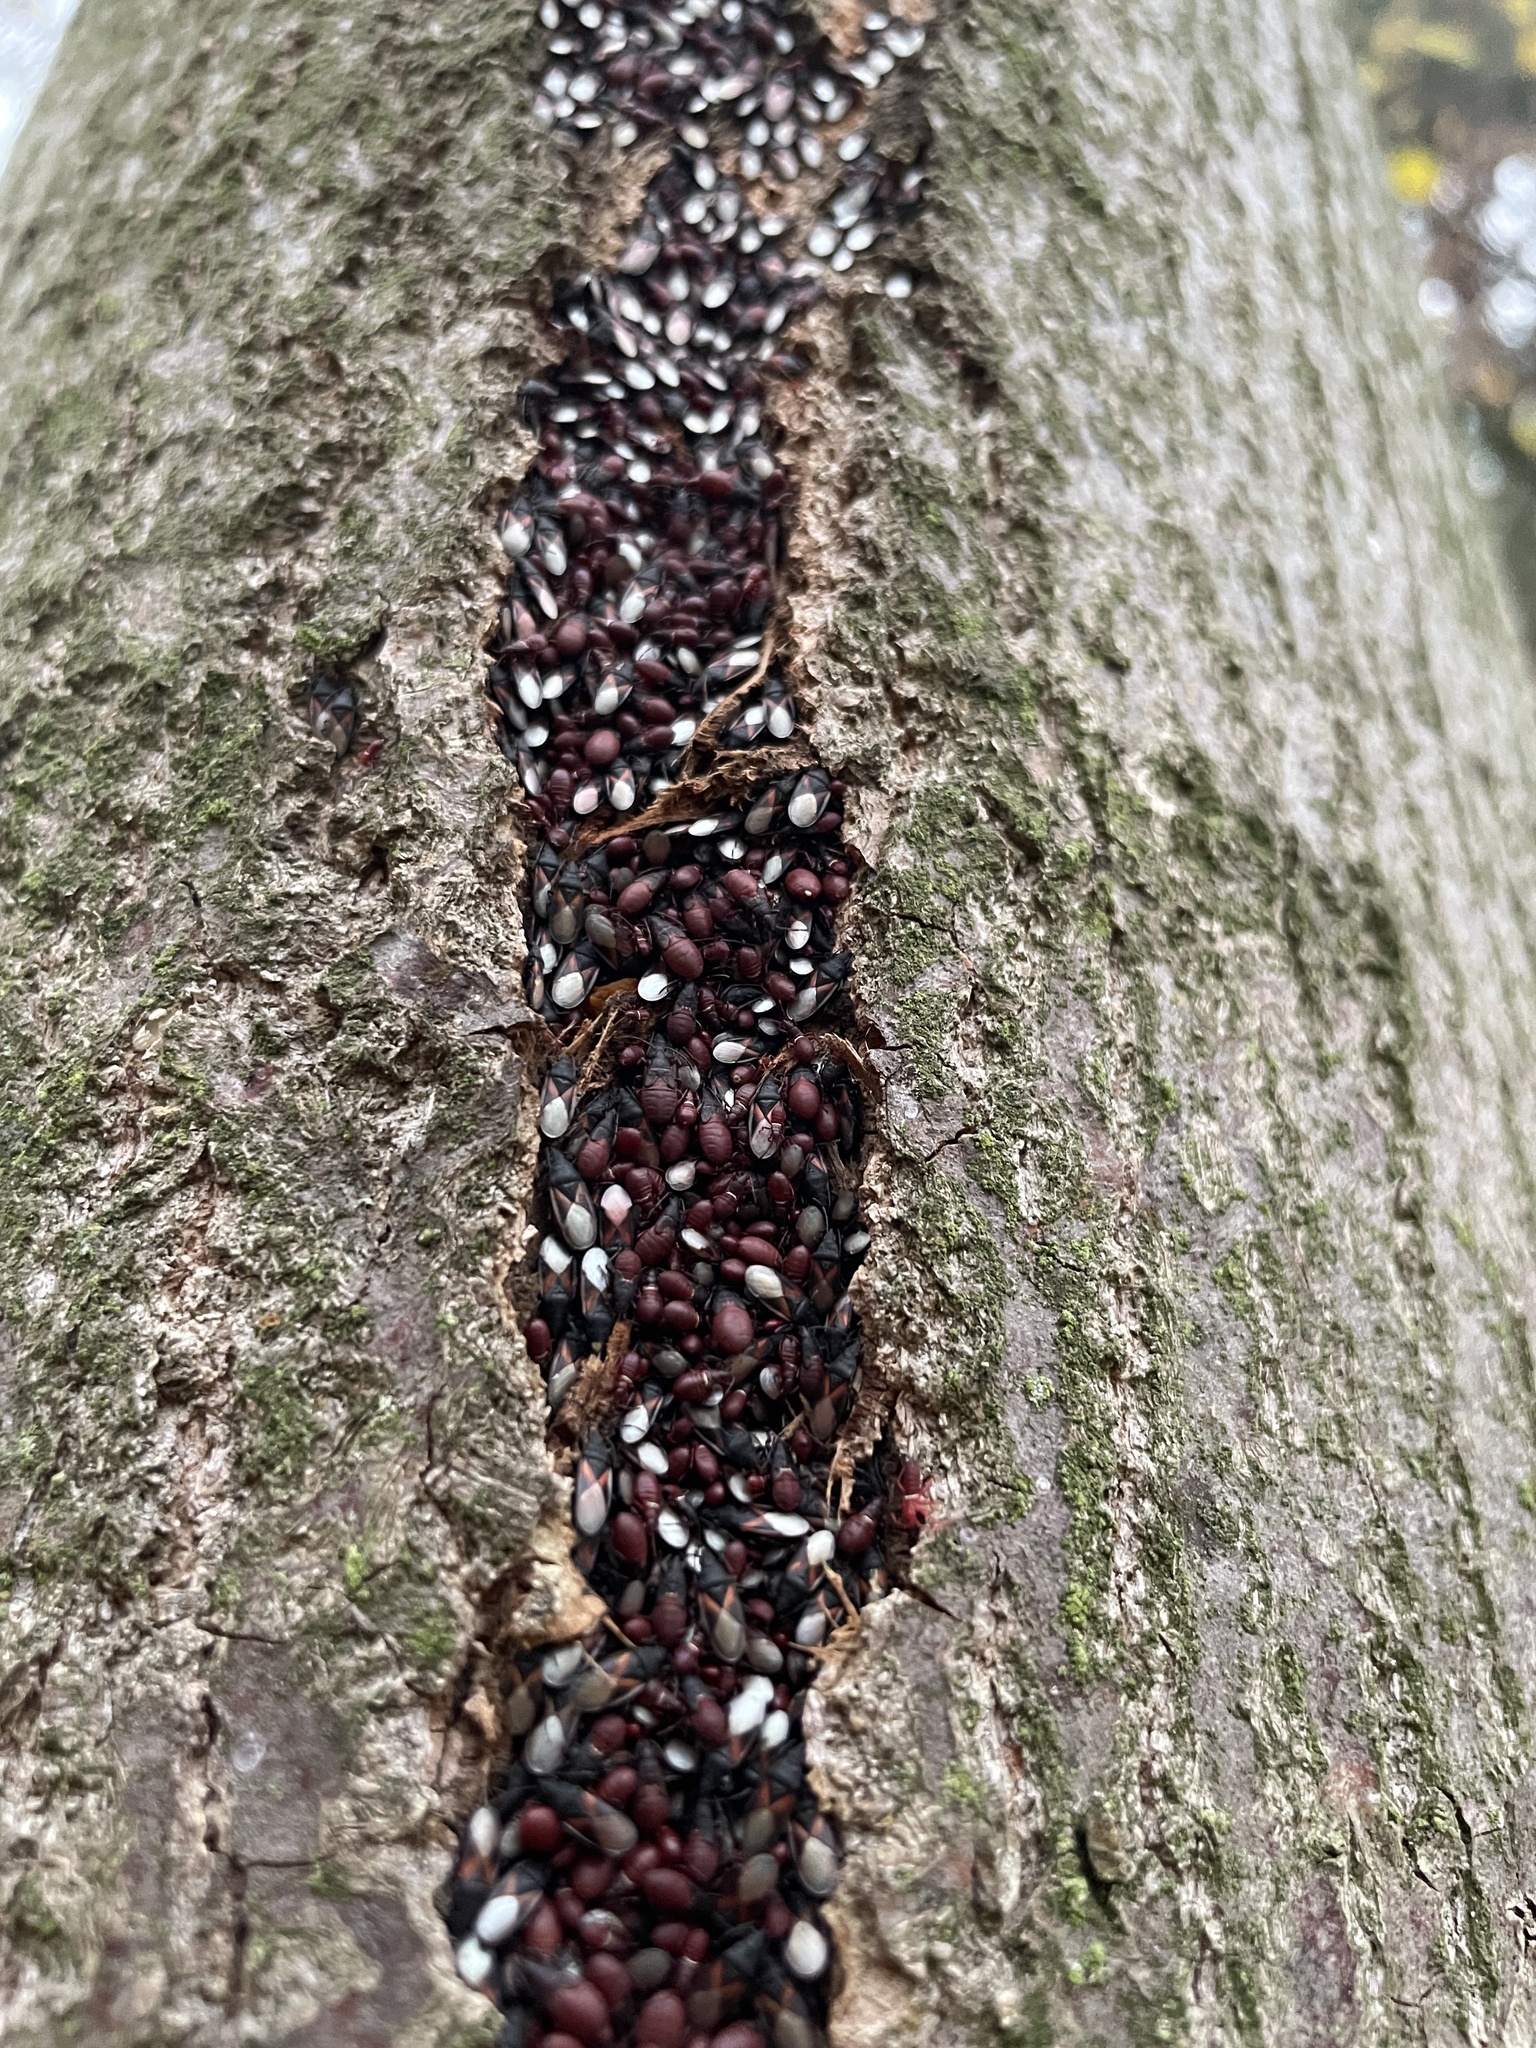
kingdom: Animalia
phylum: Arthropoda
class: Insecta
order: Hemiptera
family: Oxycarenidae
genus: Oxycarenus
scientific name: Oxycarenus lavaterae
